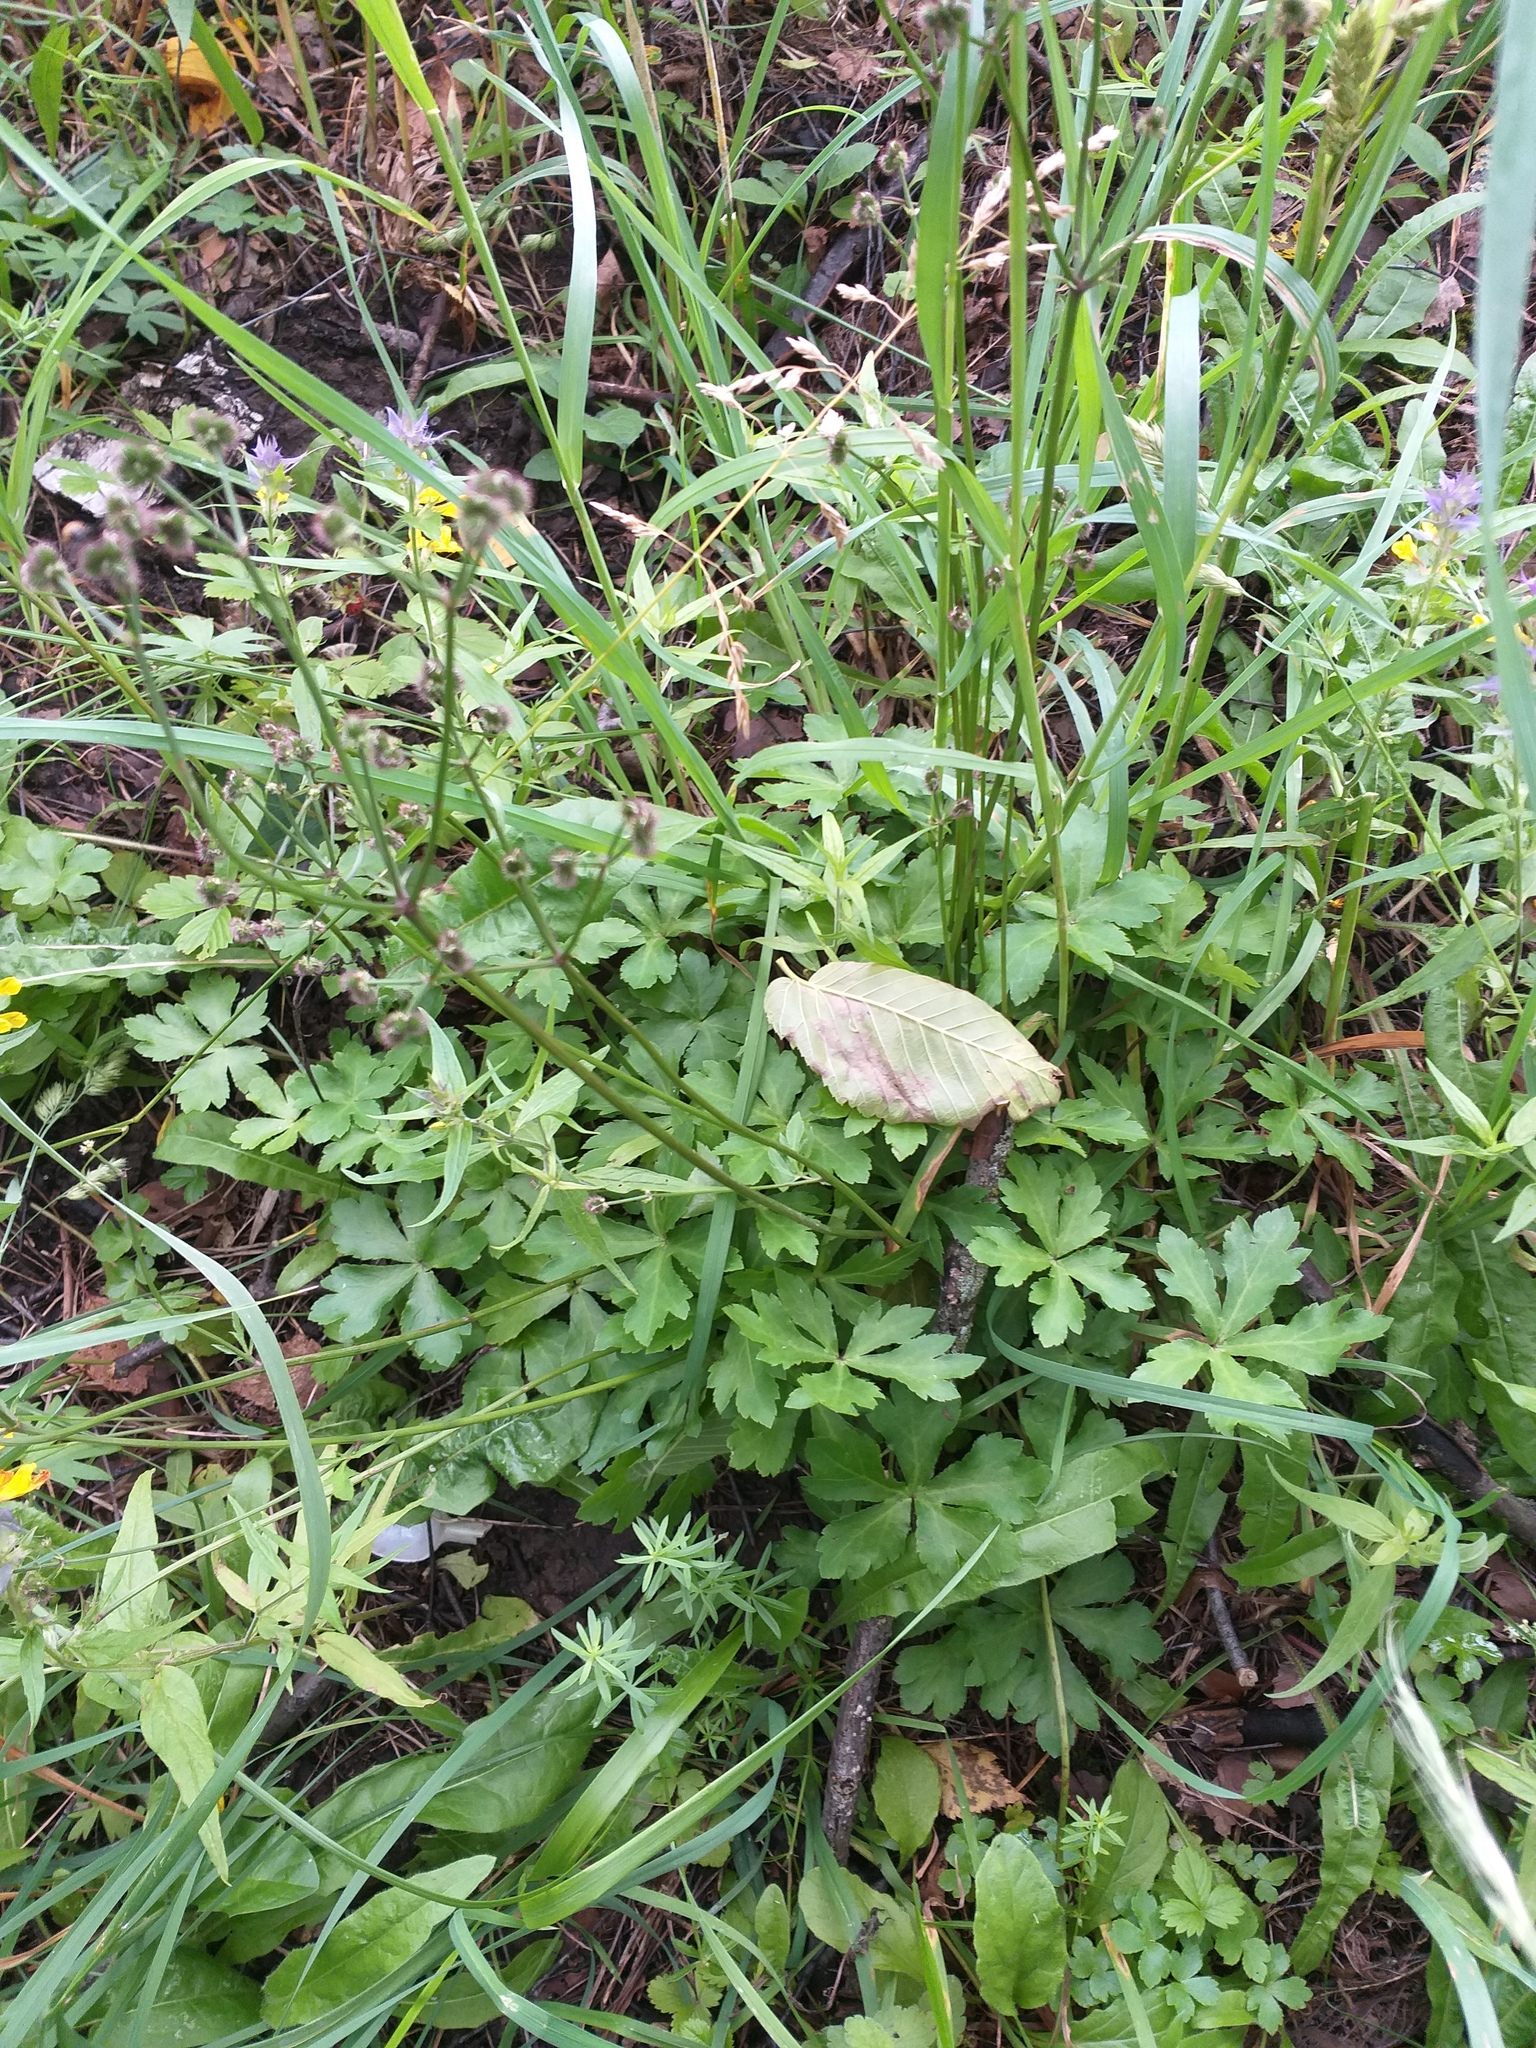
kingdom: Plantae
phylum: Tracheophyta
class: Magnoliopsida
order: Apiales
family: Apiaceae
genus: Sanicula
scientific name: Sanicula europaea
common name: Sanicle
